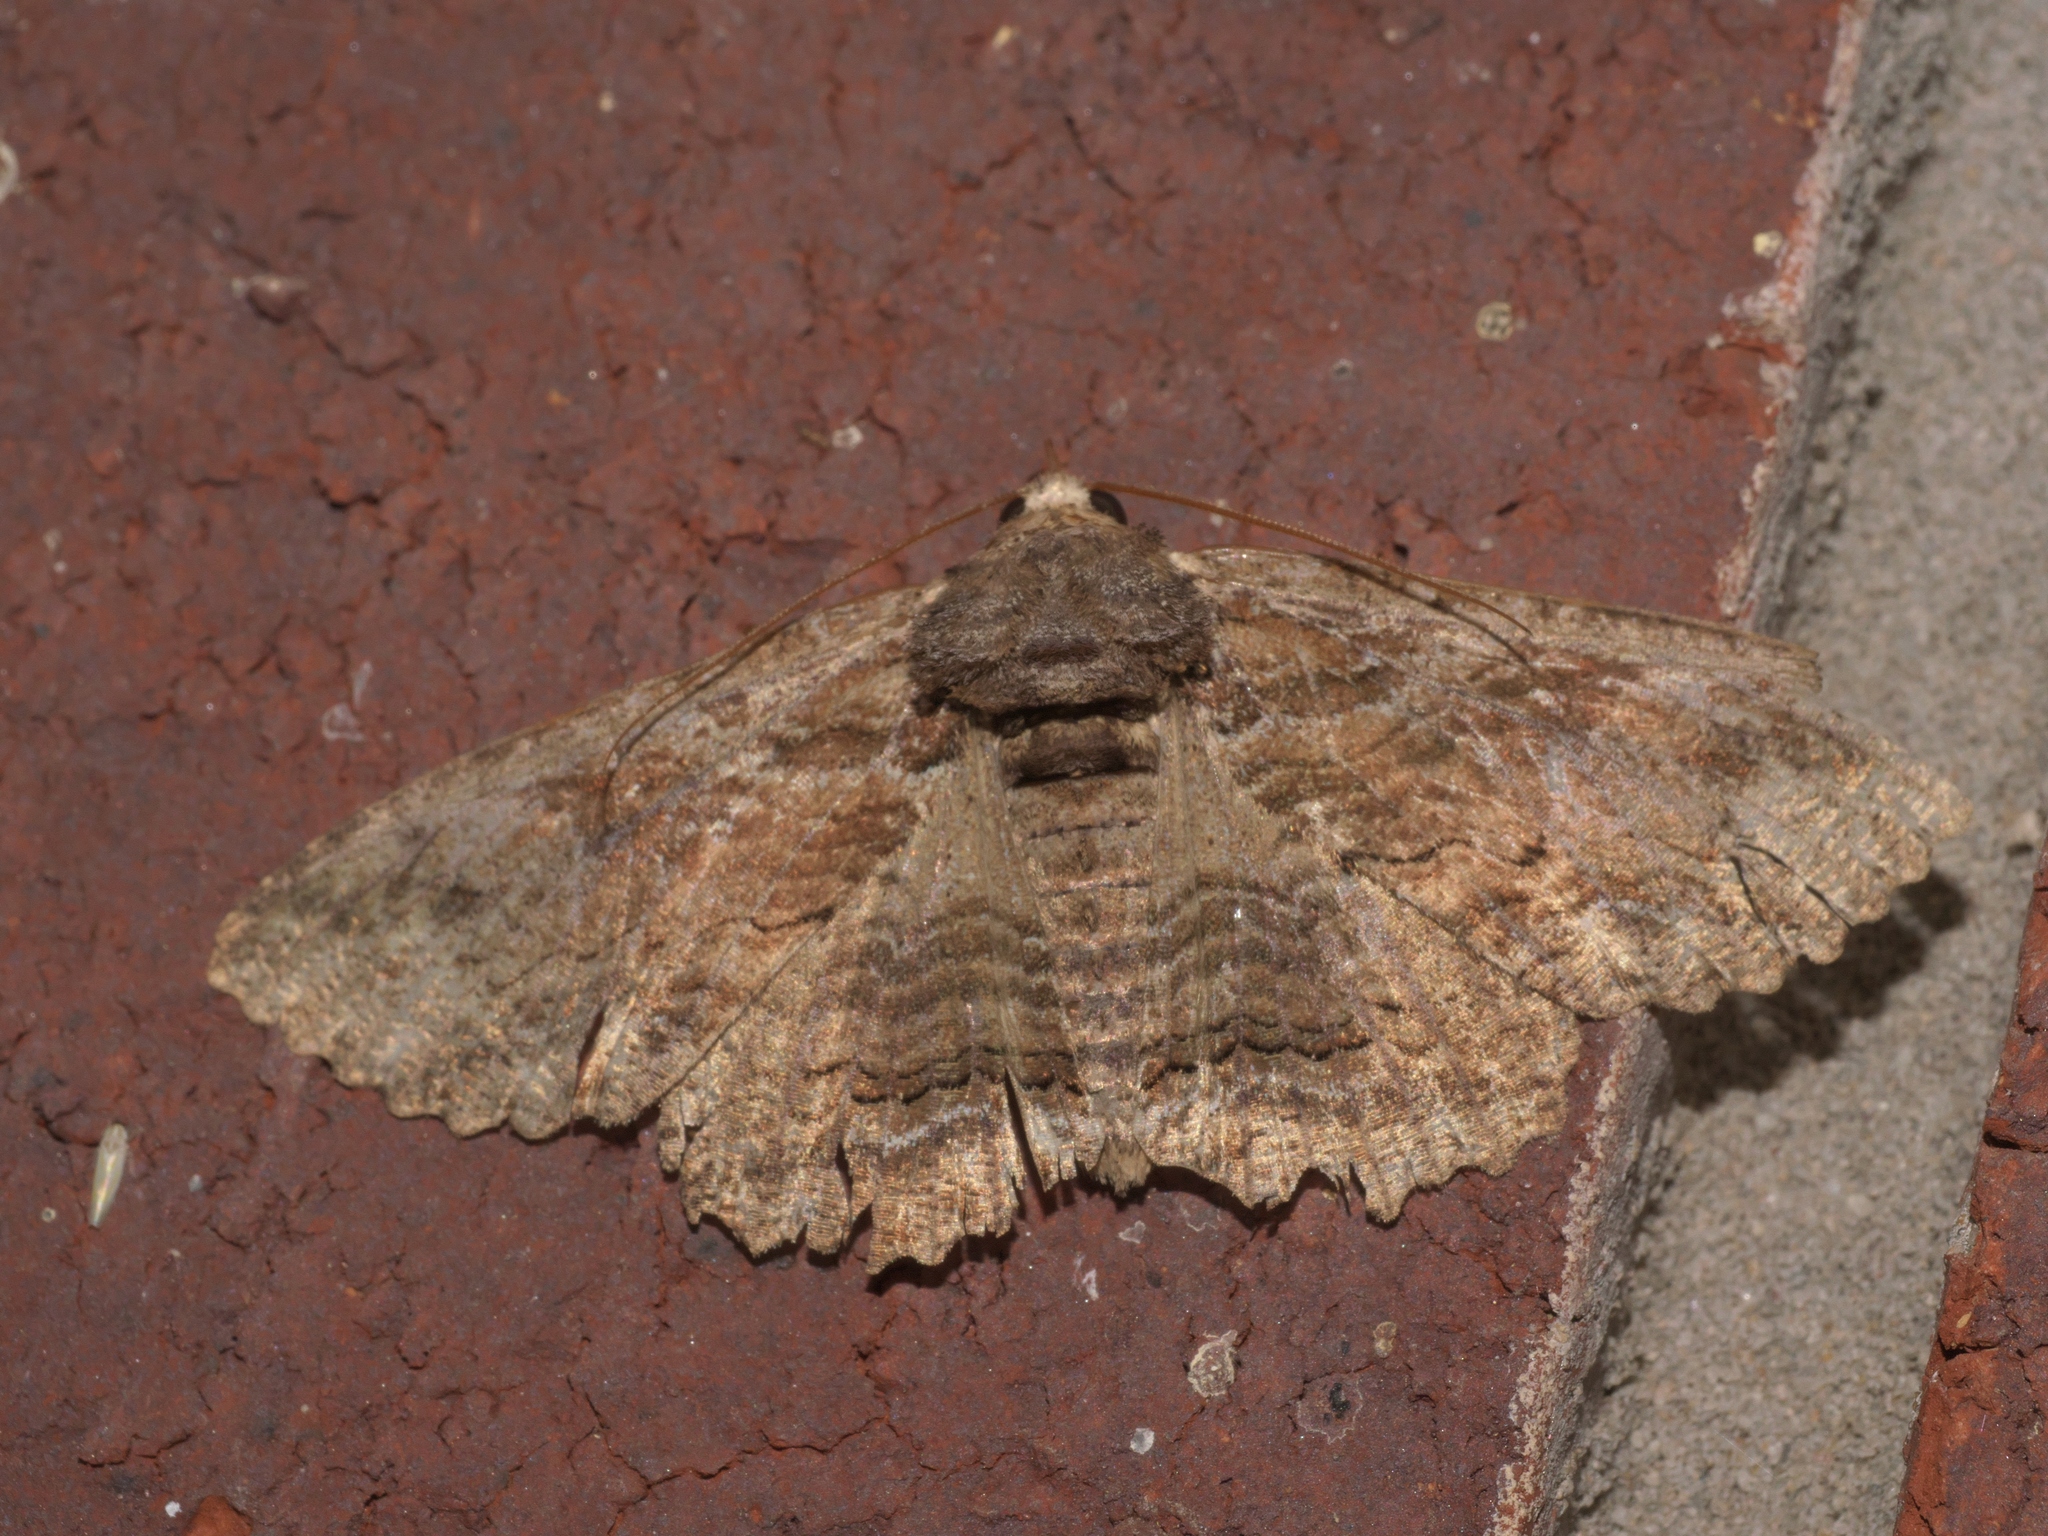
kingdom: Animalia
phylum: Arthropoda
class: Insecta
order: Lepidoptera
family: Erebidae
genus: Zale
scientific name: Zale lunata
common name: Lunate zale moth
